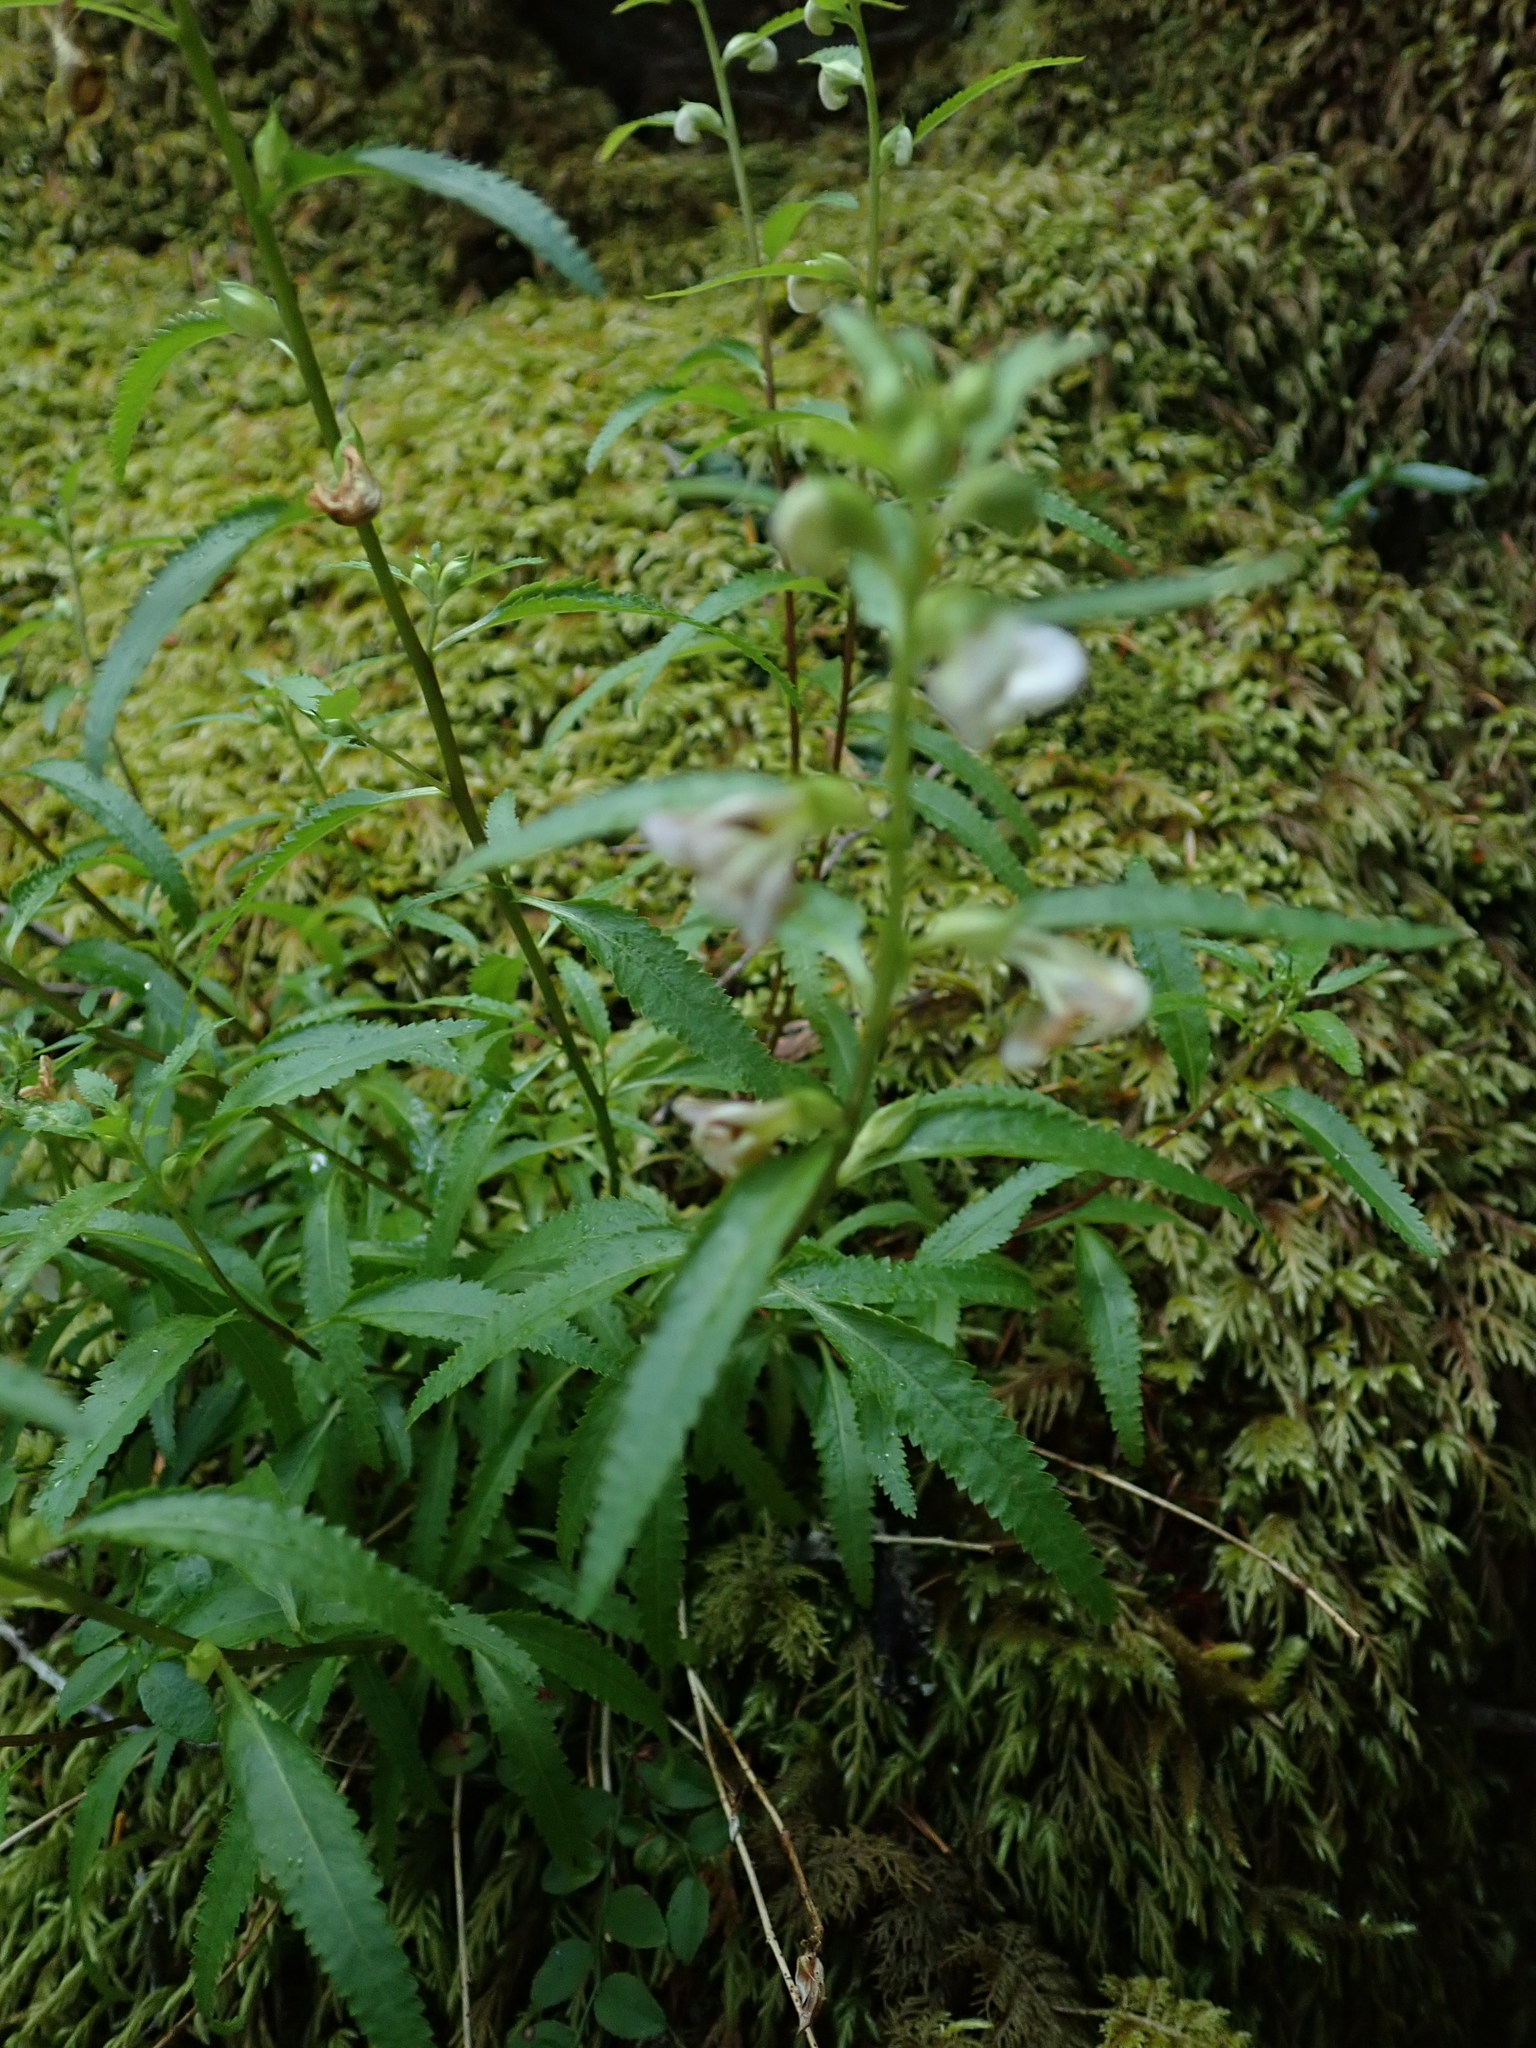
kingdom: Plantae
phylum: Tracheophyta
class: Magnoliopsida
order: Lamiales
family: Orobanchaceae
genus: Pedicularis
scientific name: Pedicularis racemosa
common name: Leafy lousewort
